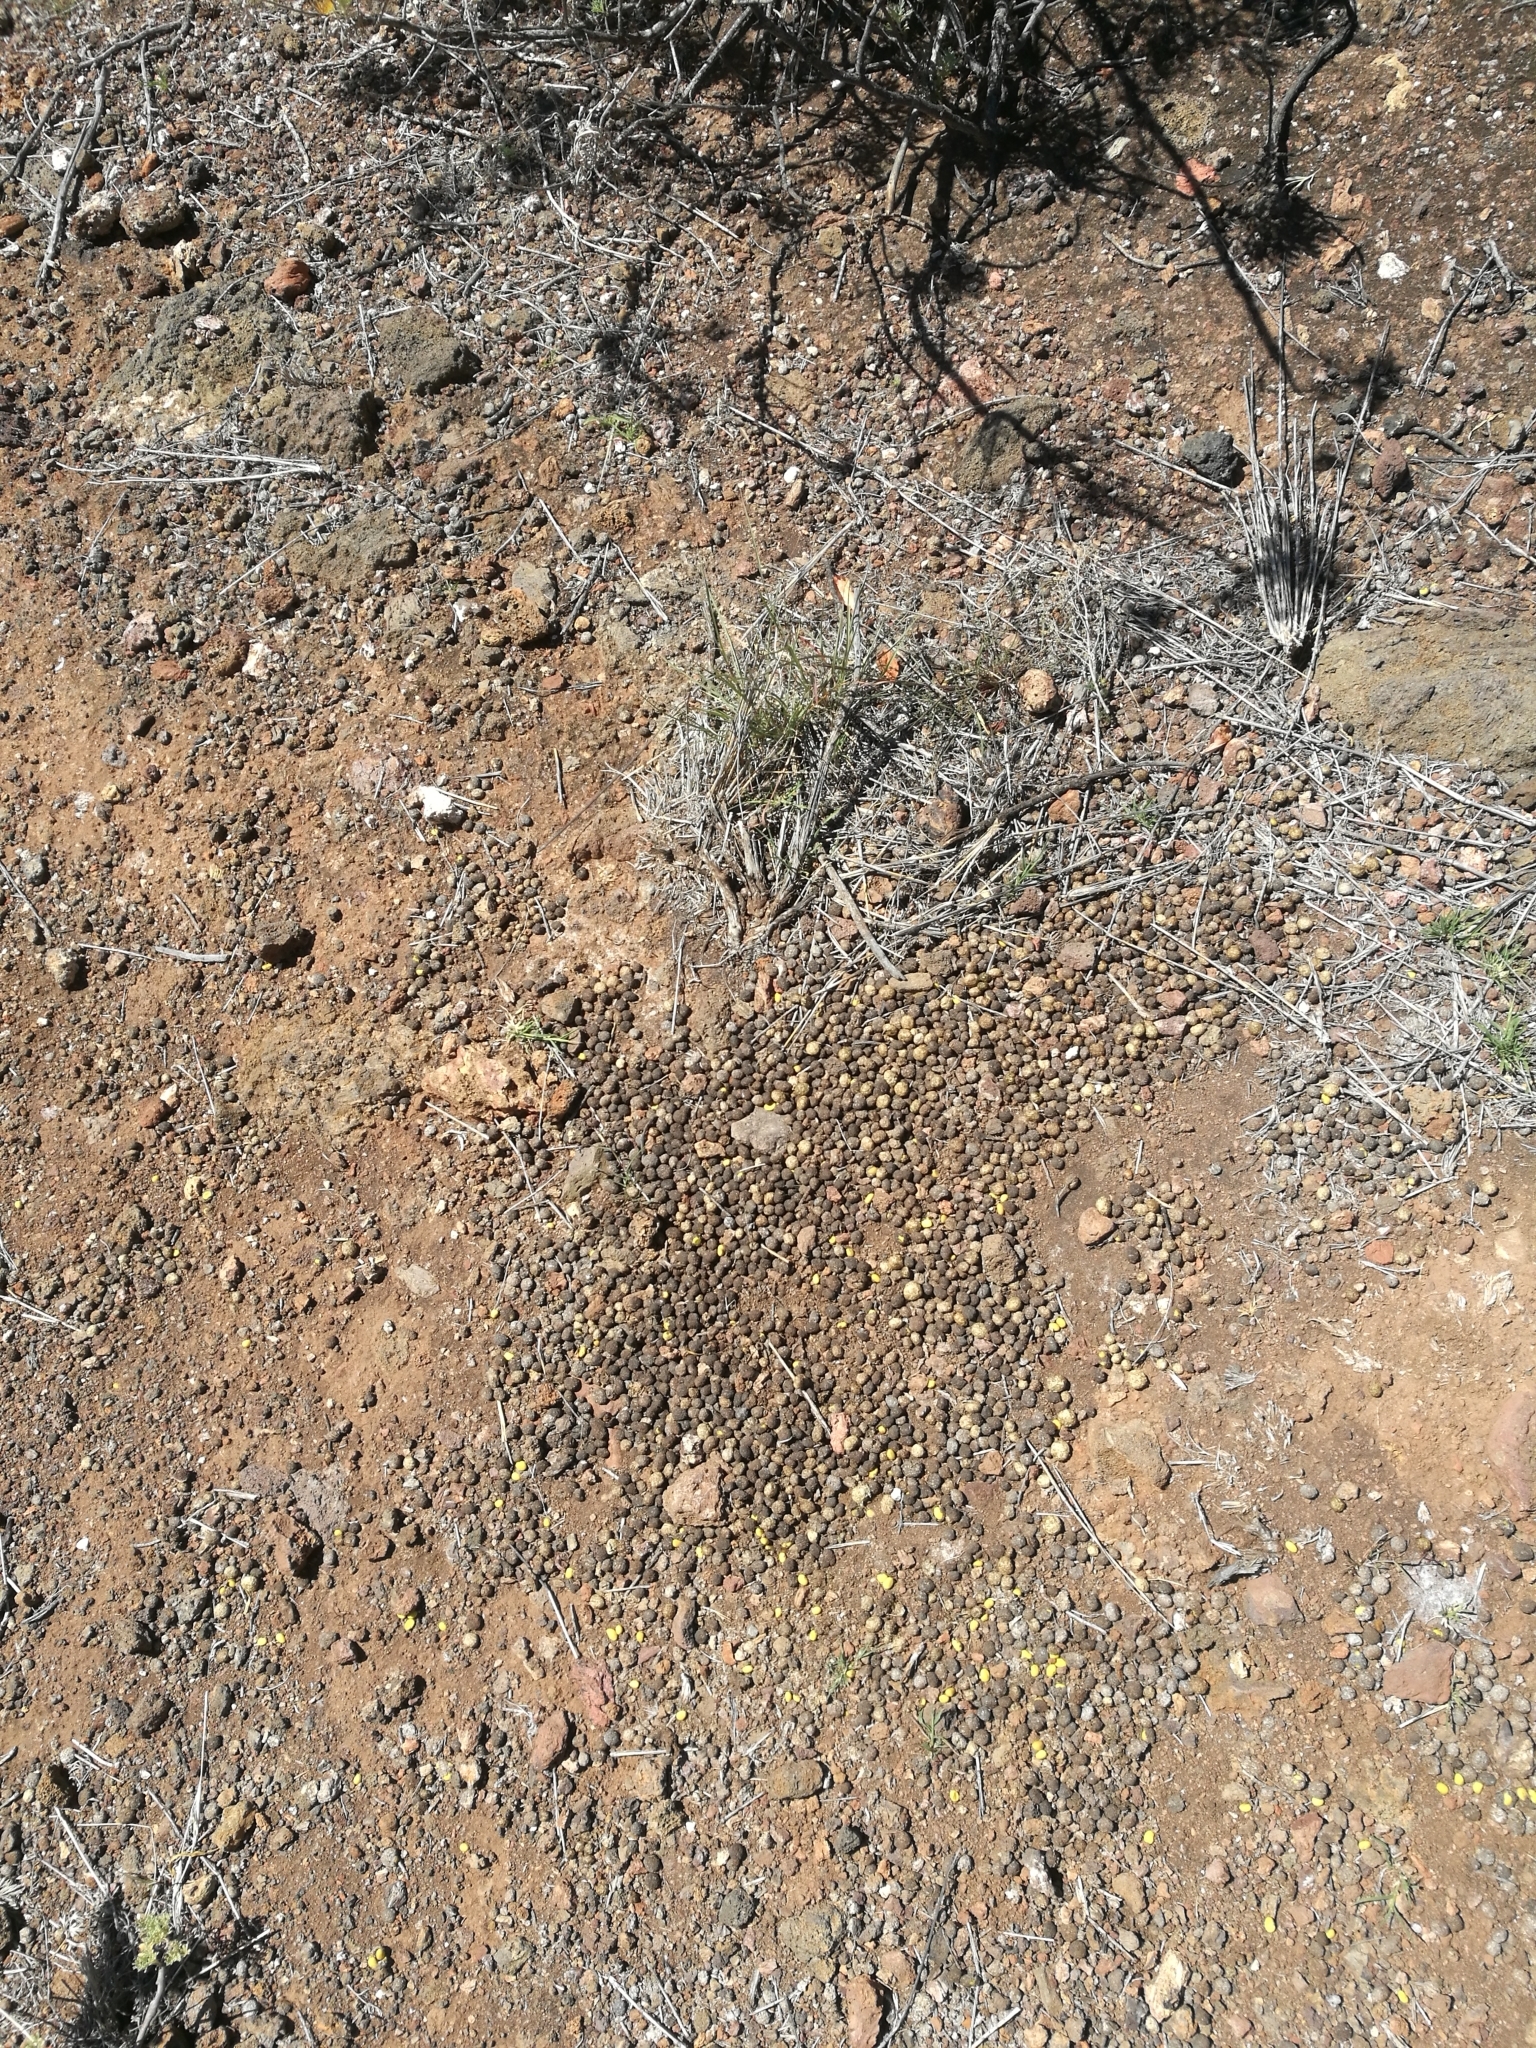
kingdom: Animalia
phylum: Chordata
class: Mammalia
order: Lagomorpha
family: Leporidae
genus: Oryctolagus
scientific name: Oryctolagus cuniculus
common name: European rabbit
